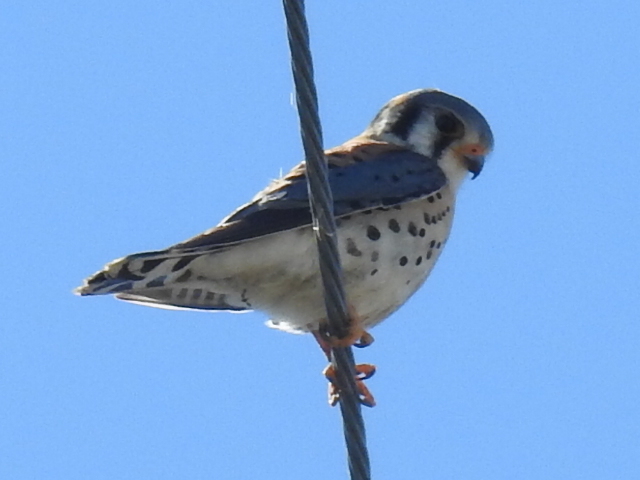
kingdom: Animalia
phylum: Chordata
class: Aves
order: Falconiformes
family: Falconidae
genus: Falco
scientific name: Falco sparverius
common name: American kestrel
